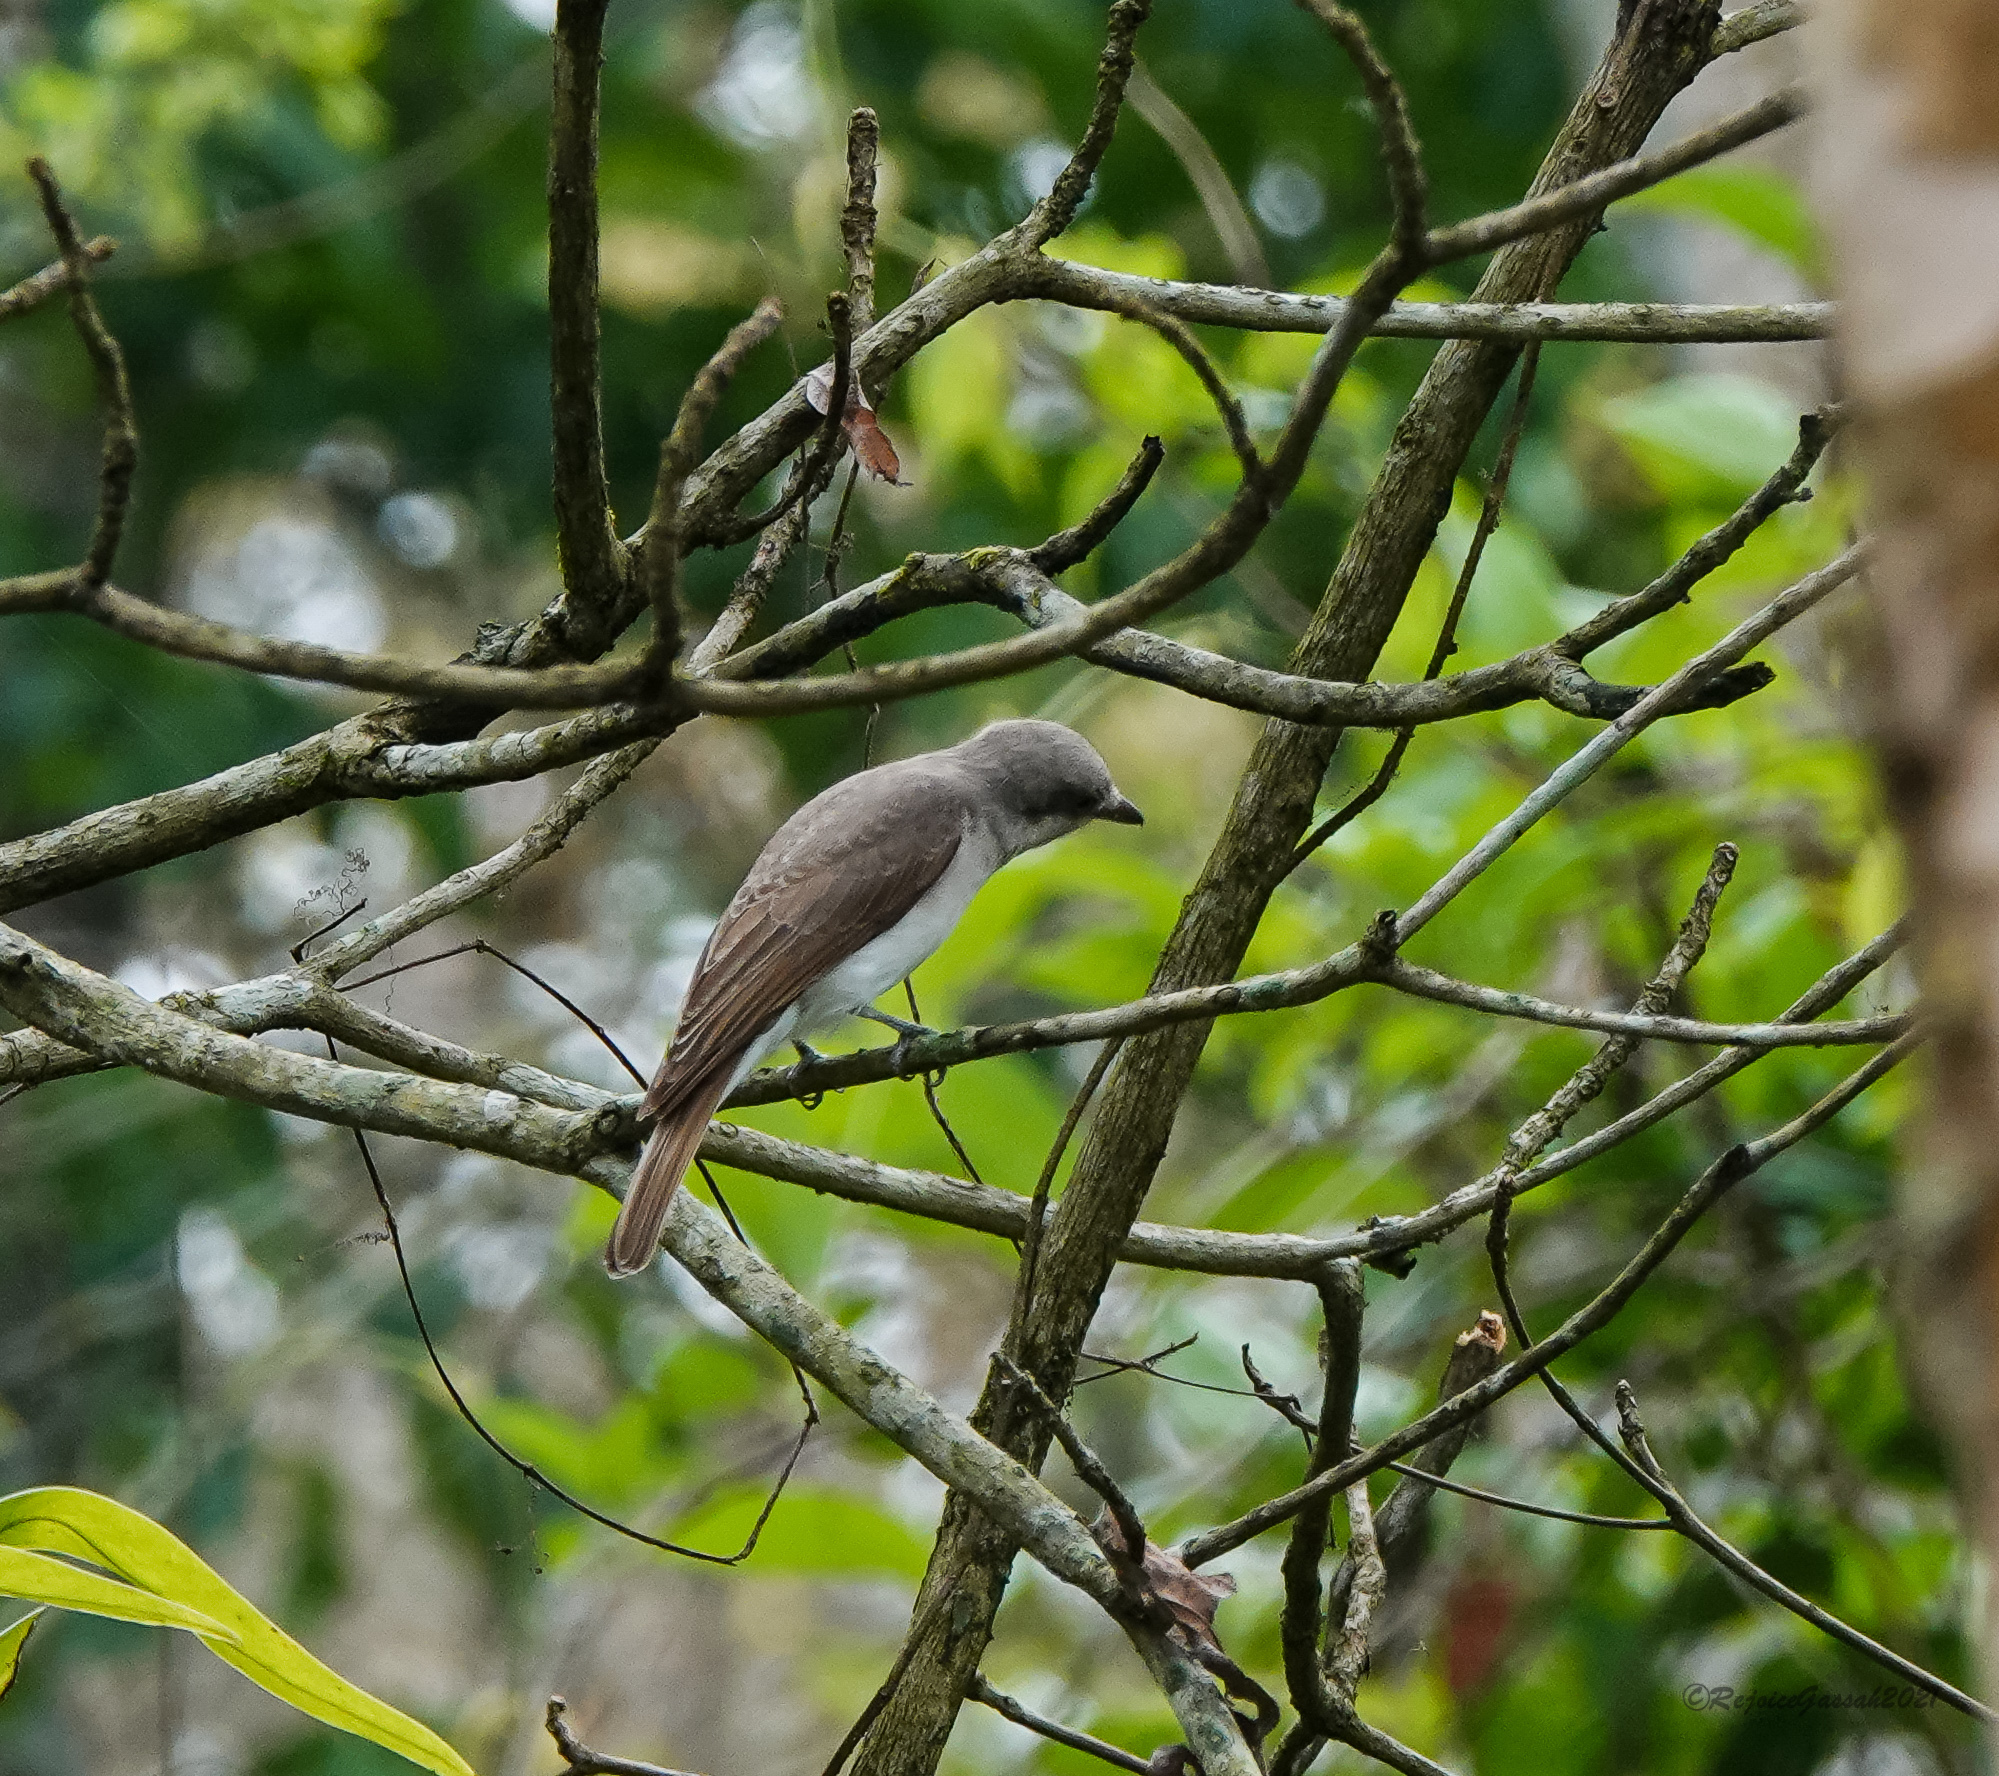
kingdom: Animalia
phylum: Chordata
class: Aves
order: Passeriformes
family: Tephrodornithidae
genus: Tephrodornis
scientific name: Tephrodornis virgatus
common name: Large woodshrike
